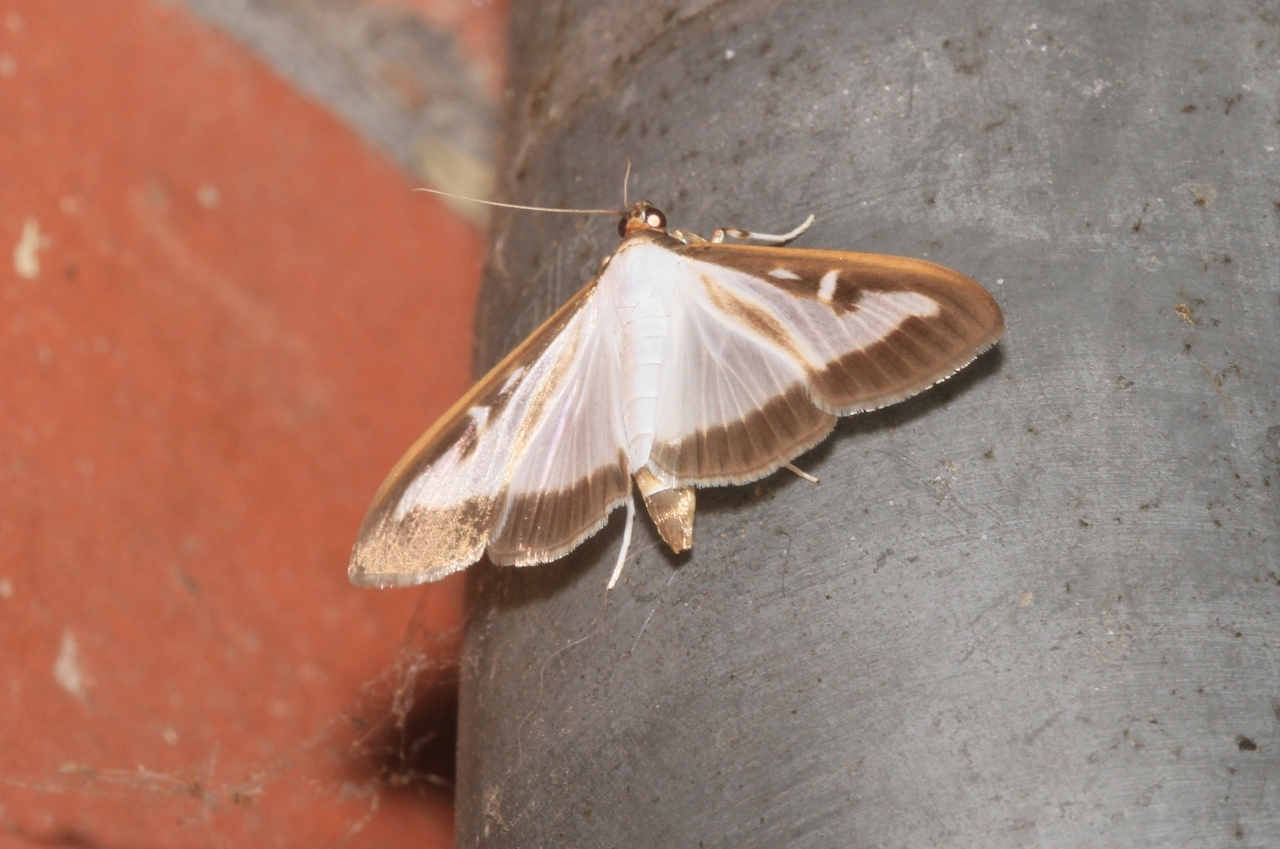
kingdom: Animalia
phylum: Arthropoda
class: Insecta
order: Lepidoptera
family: Crambidae
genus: Cydalima
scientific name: Cydalima perspectalis
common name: Box tree moth
